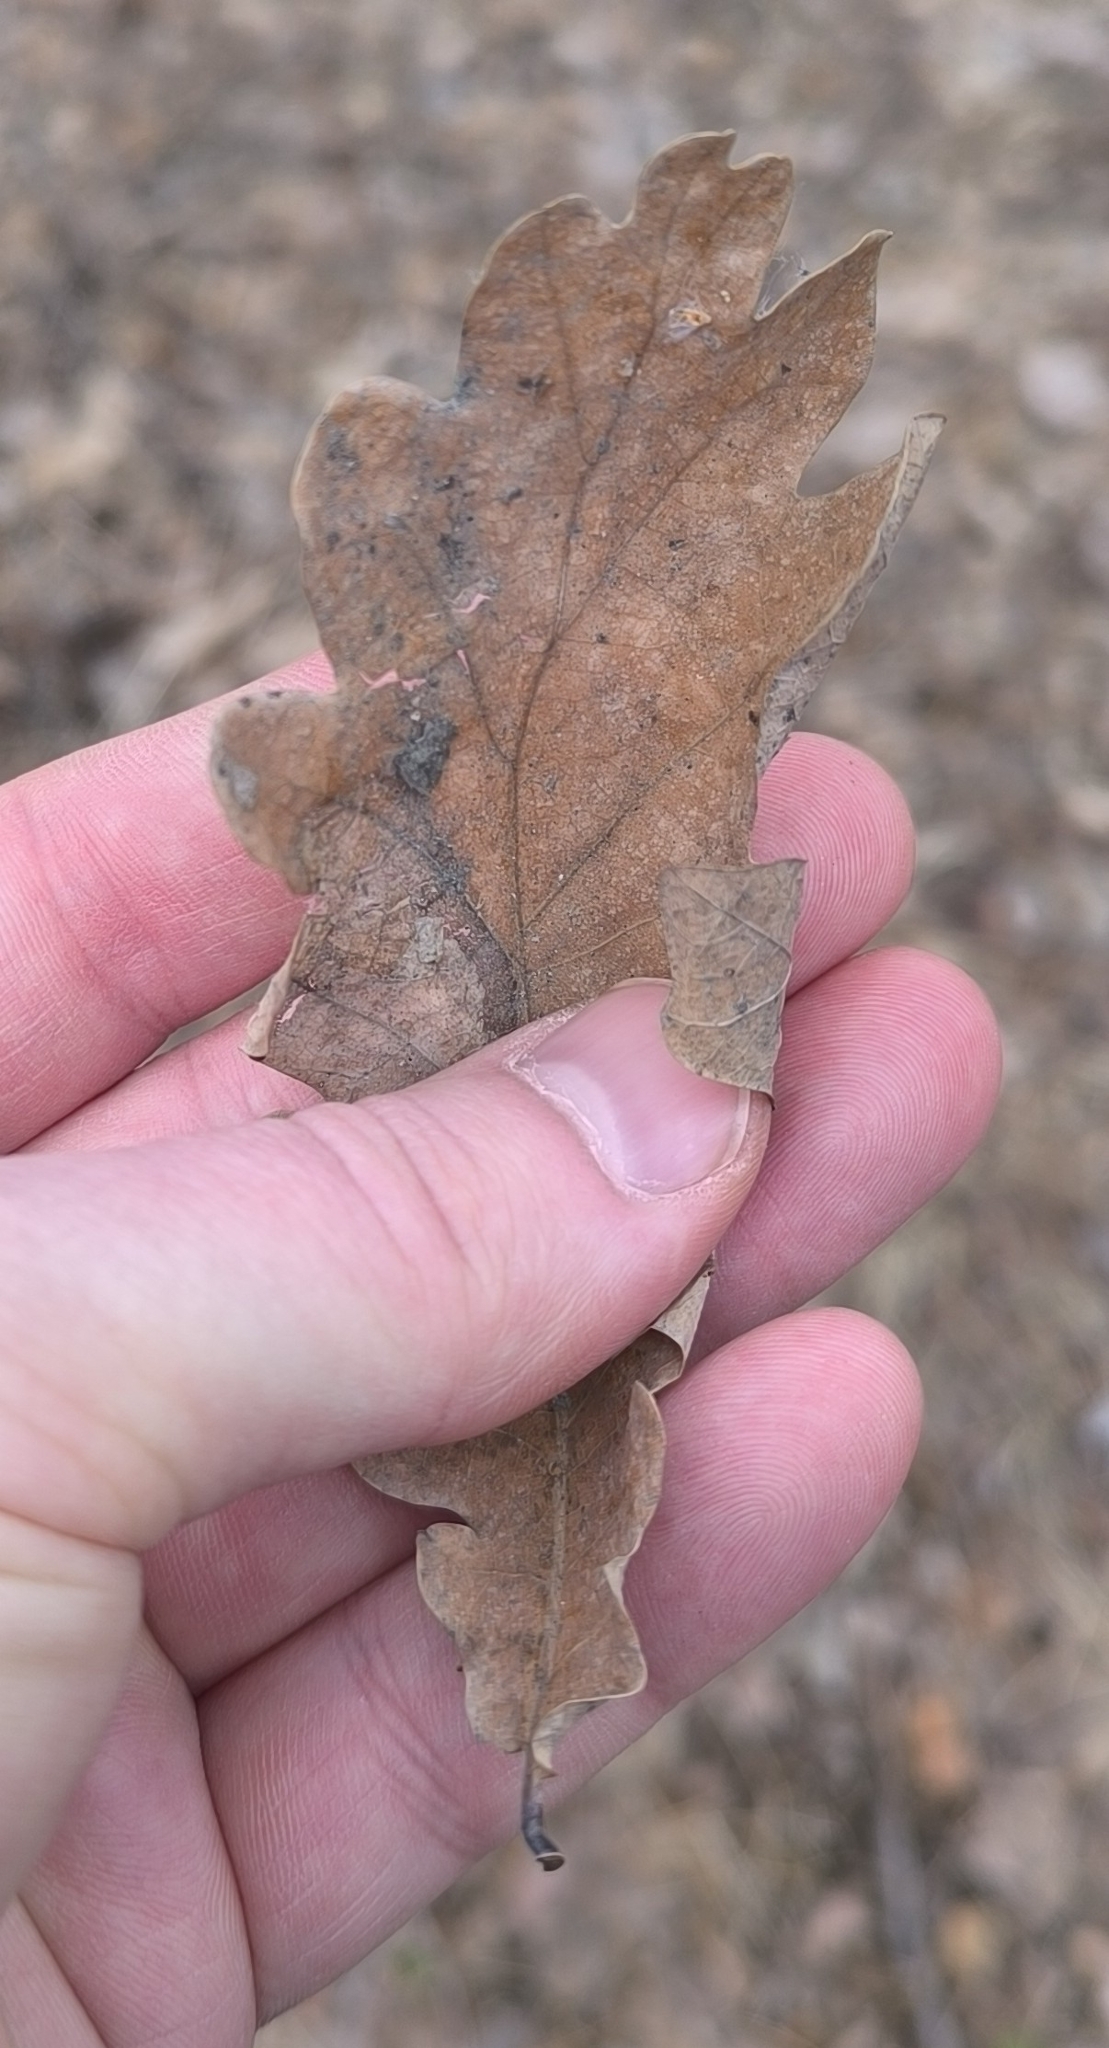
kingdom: Plantae
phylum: Tracheophyta
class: Magnoliopsida
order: Fagales
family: Fagaceae
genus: Quercus
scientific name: Quercus robur
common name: Pedunculate oak
